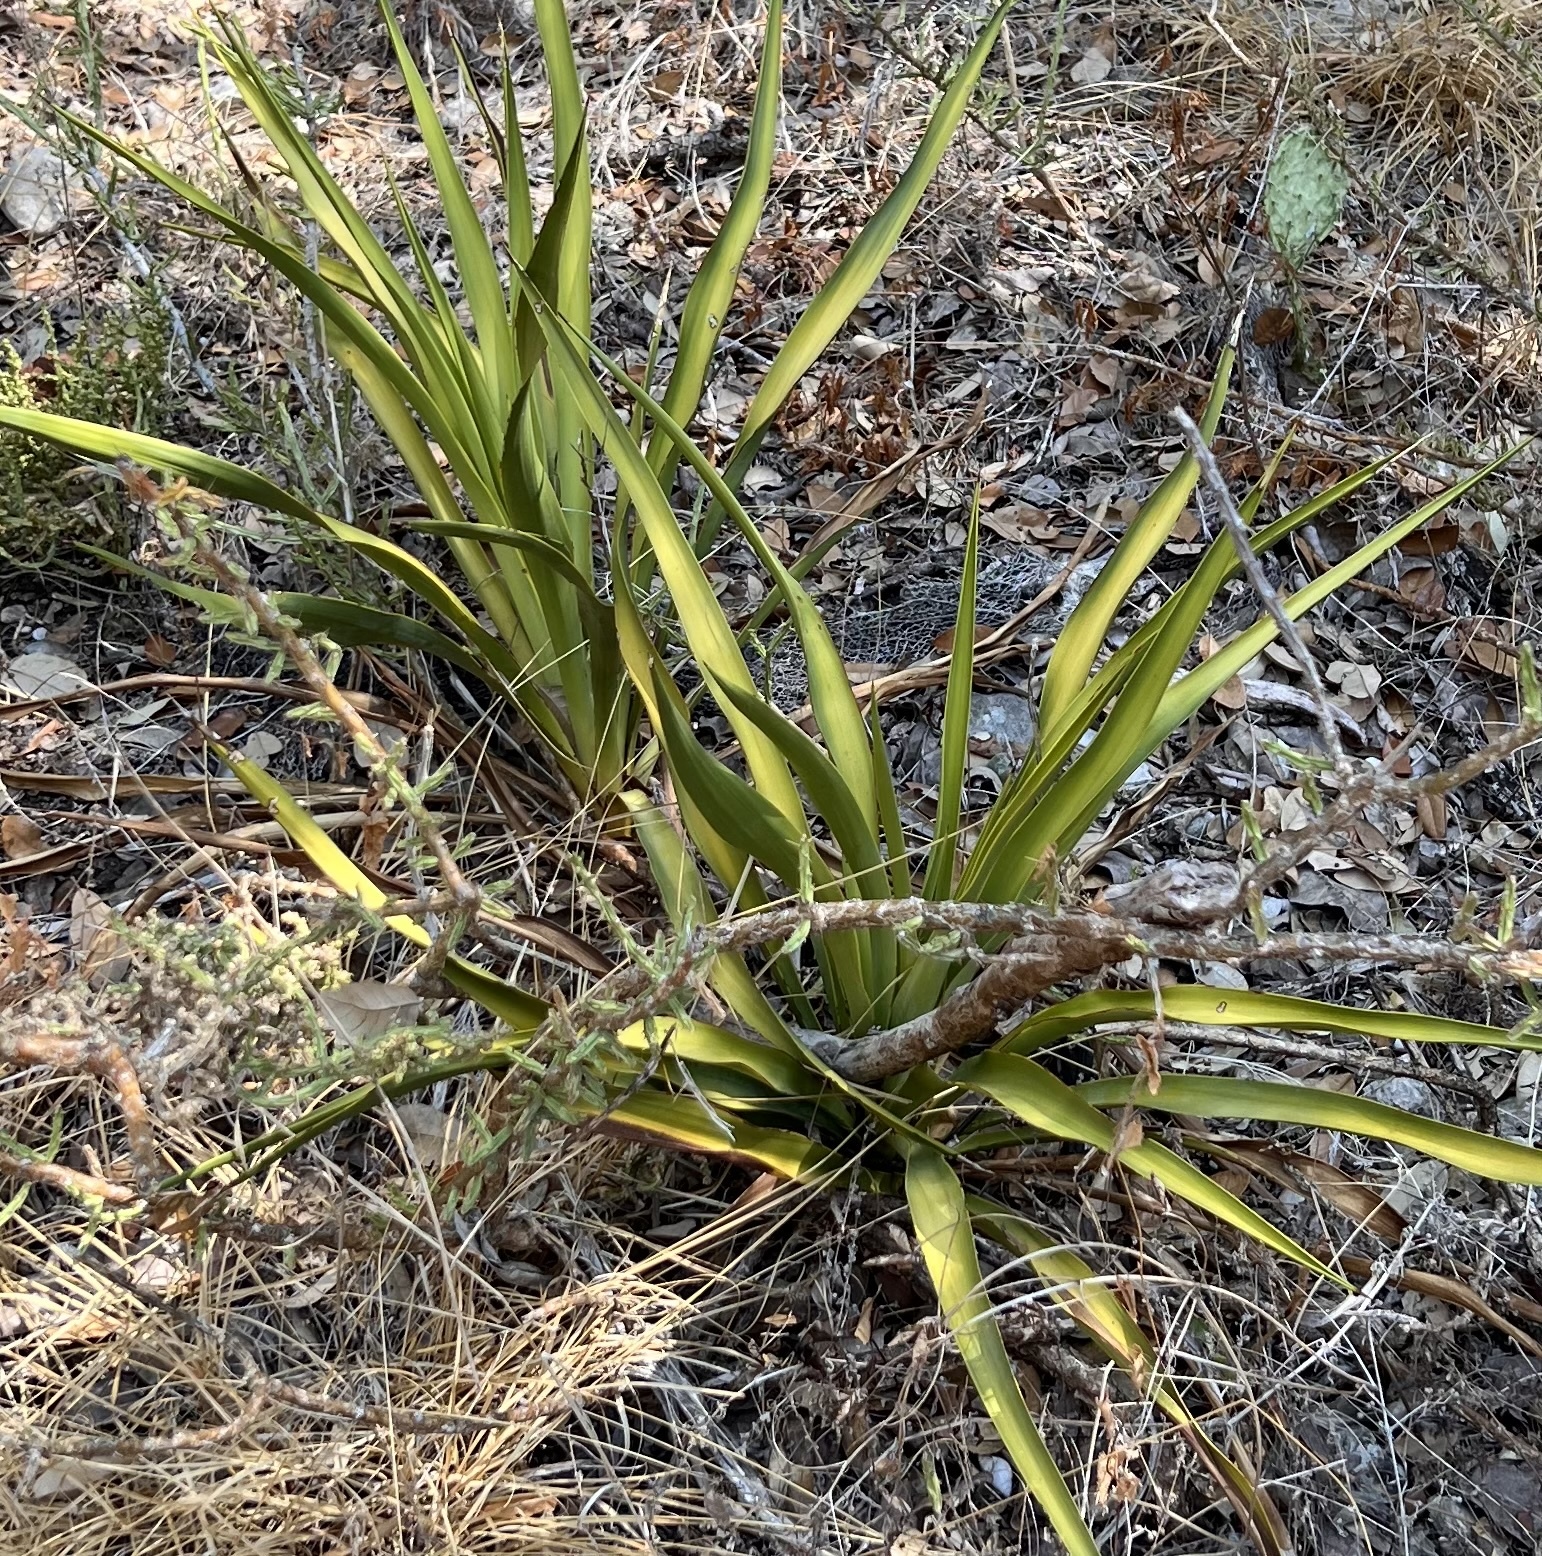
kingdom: Plantae
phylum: Tracheophyta
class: Liliopsida
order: Asparagales
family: Asparagaceae
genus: Yucca
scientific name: Yucca rupicola
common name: Twisted-leaf spanish-dagger
